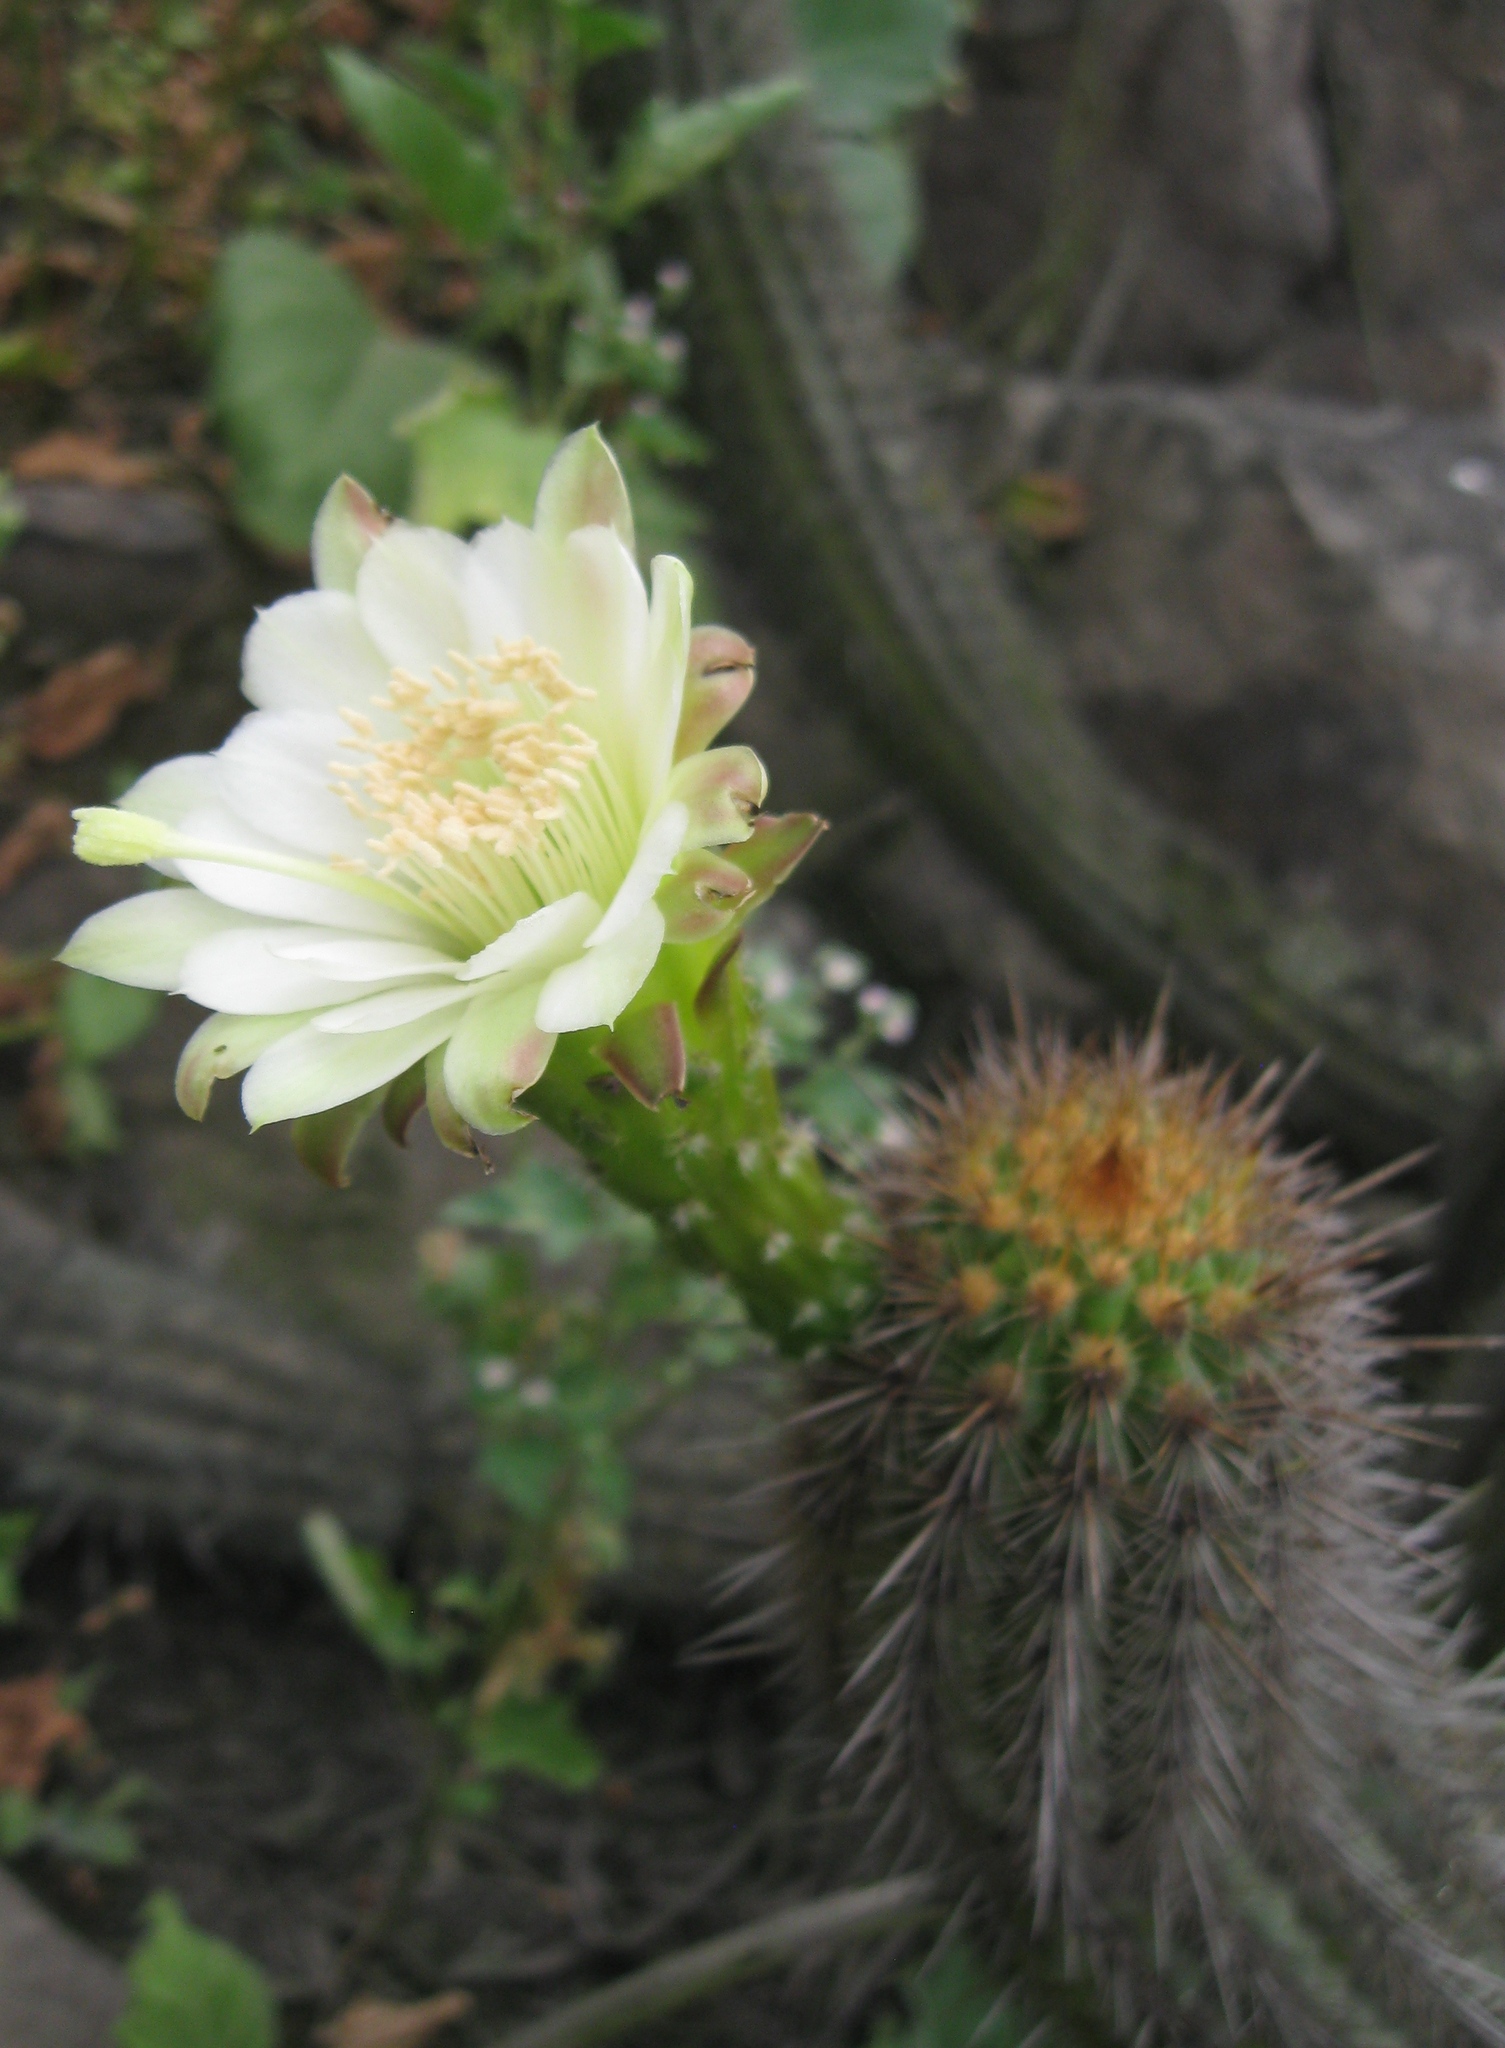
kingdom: Plantae
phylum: Tracheophyta
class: Magnoliopsida
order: Caryophyllales
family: Cactaceae
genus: Haageocereus
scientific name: Haageocereus acranthus
